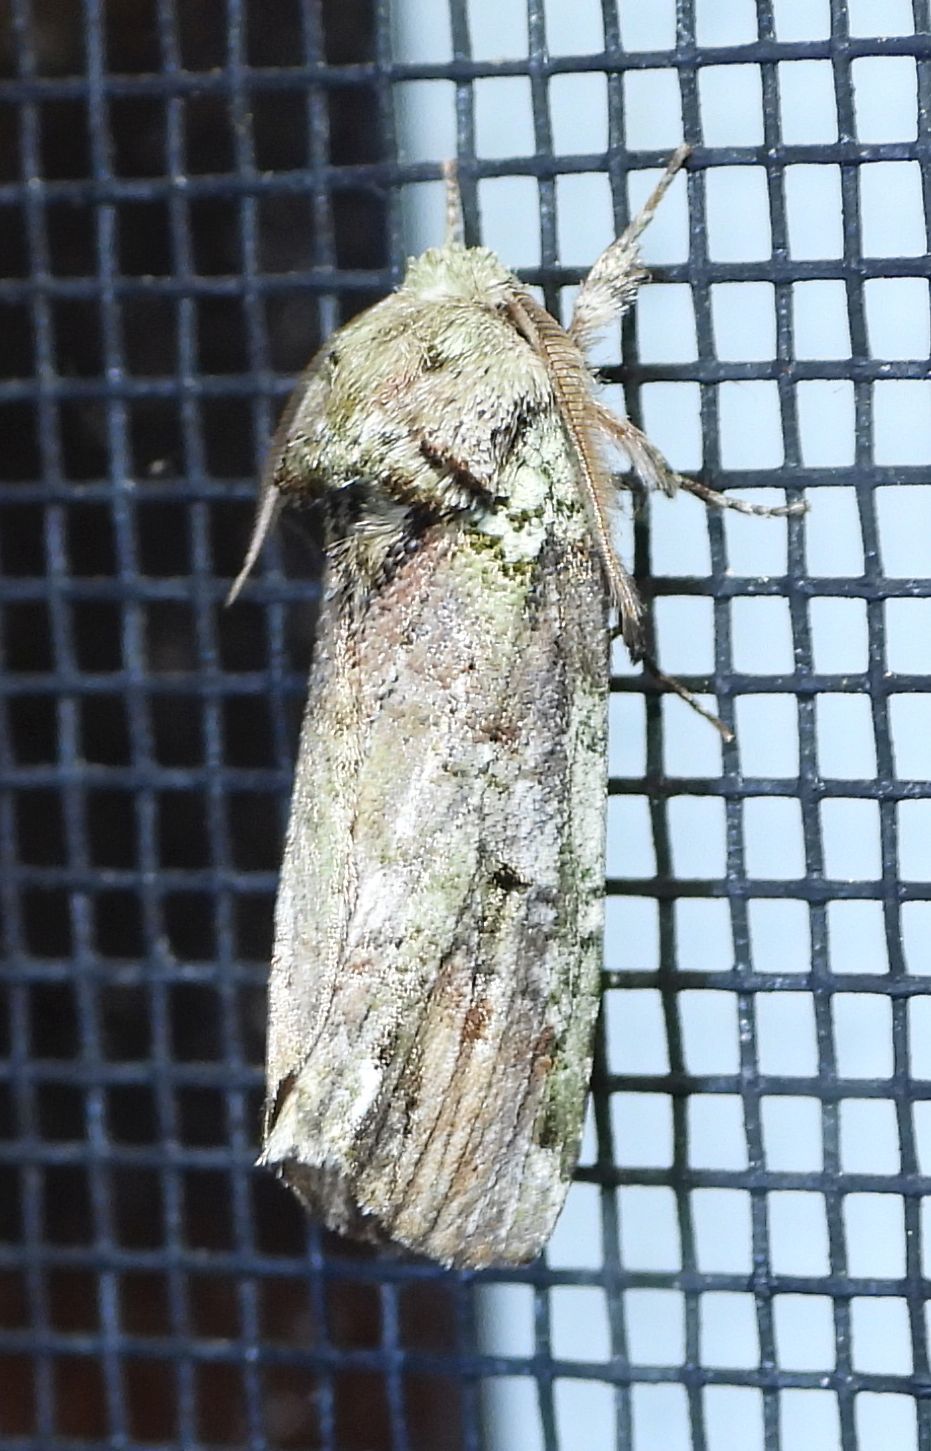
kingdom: Animalia
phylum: Arthropoda
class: Insecta
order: Lepidoptera
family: Notodontidae
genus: Schizura
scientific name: Schizura
